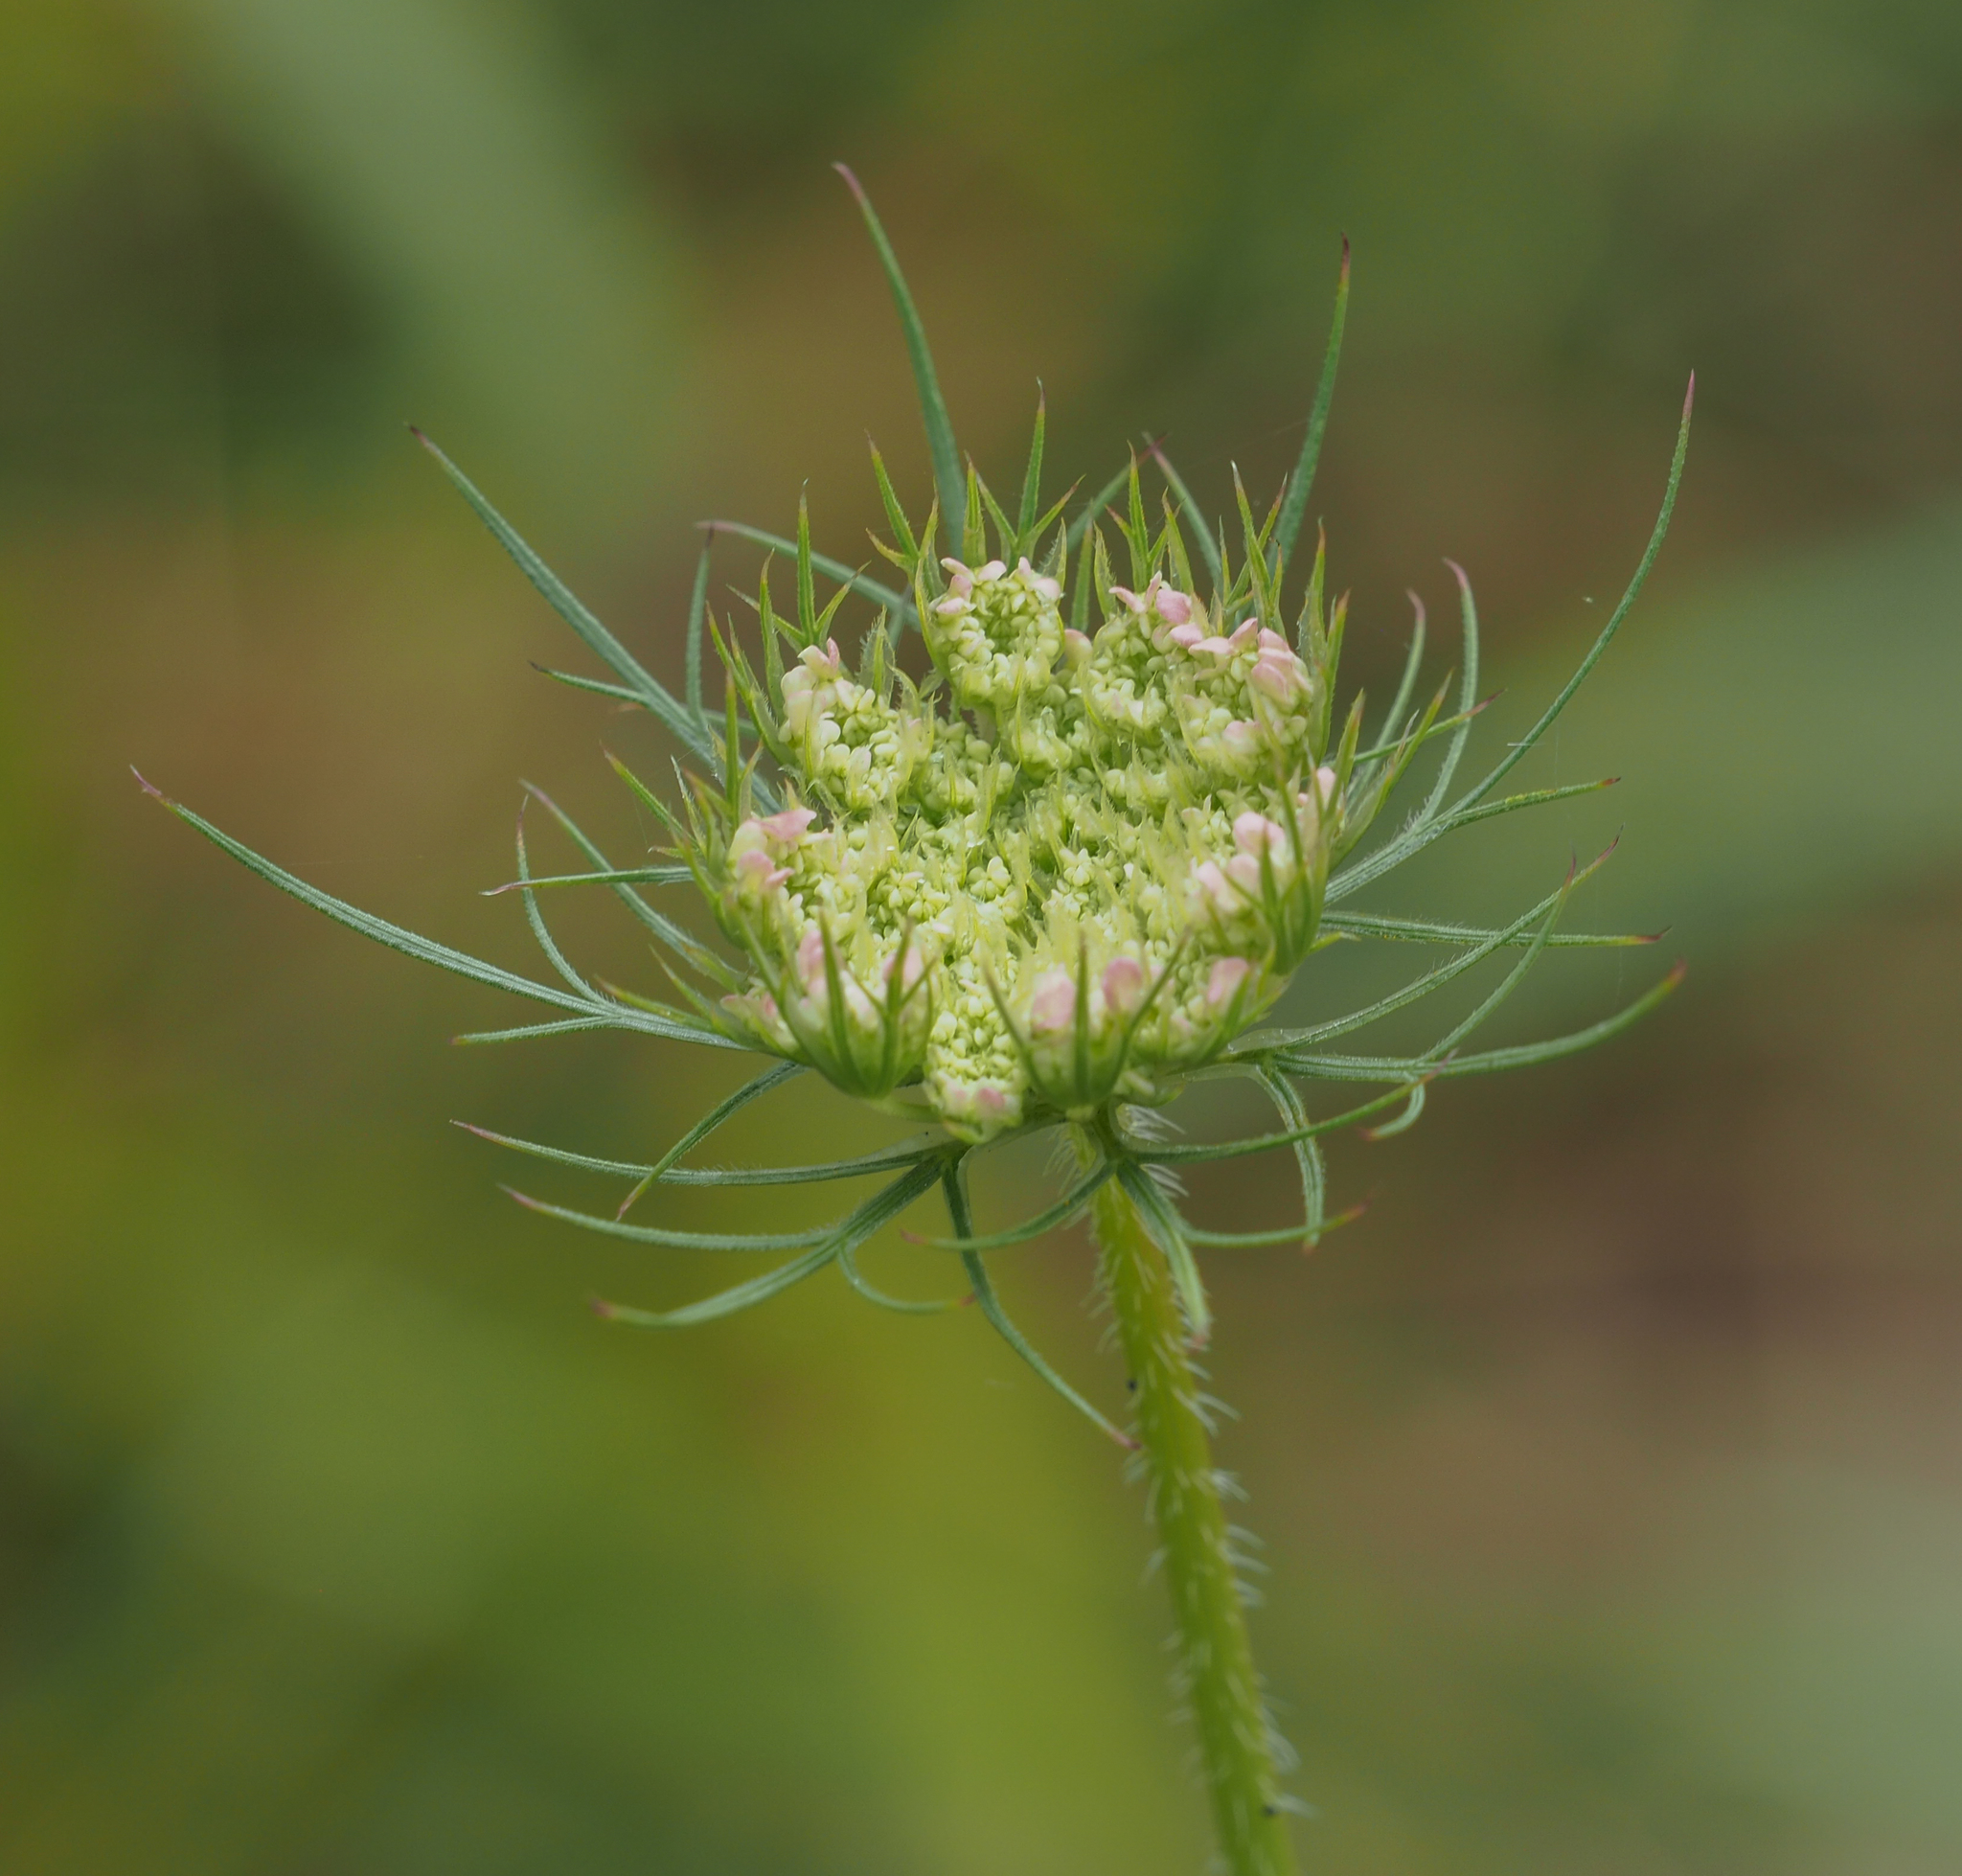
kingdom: Plantae
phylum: Tracheophyta
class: Magnoliopsida
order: Apiales
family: Apiaceae
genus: Daucus
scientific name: Daucus carota
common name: Wild carrot
